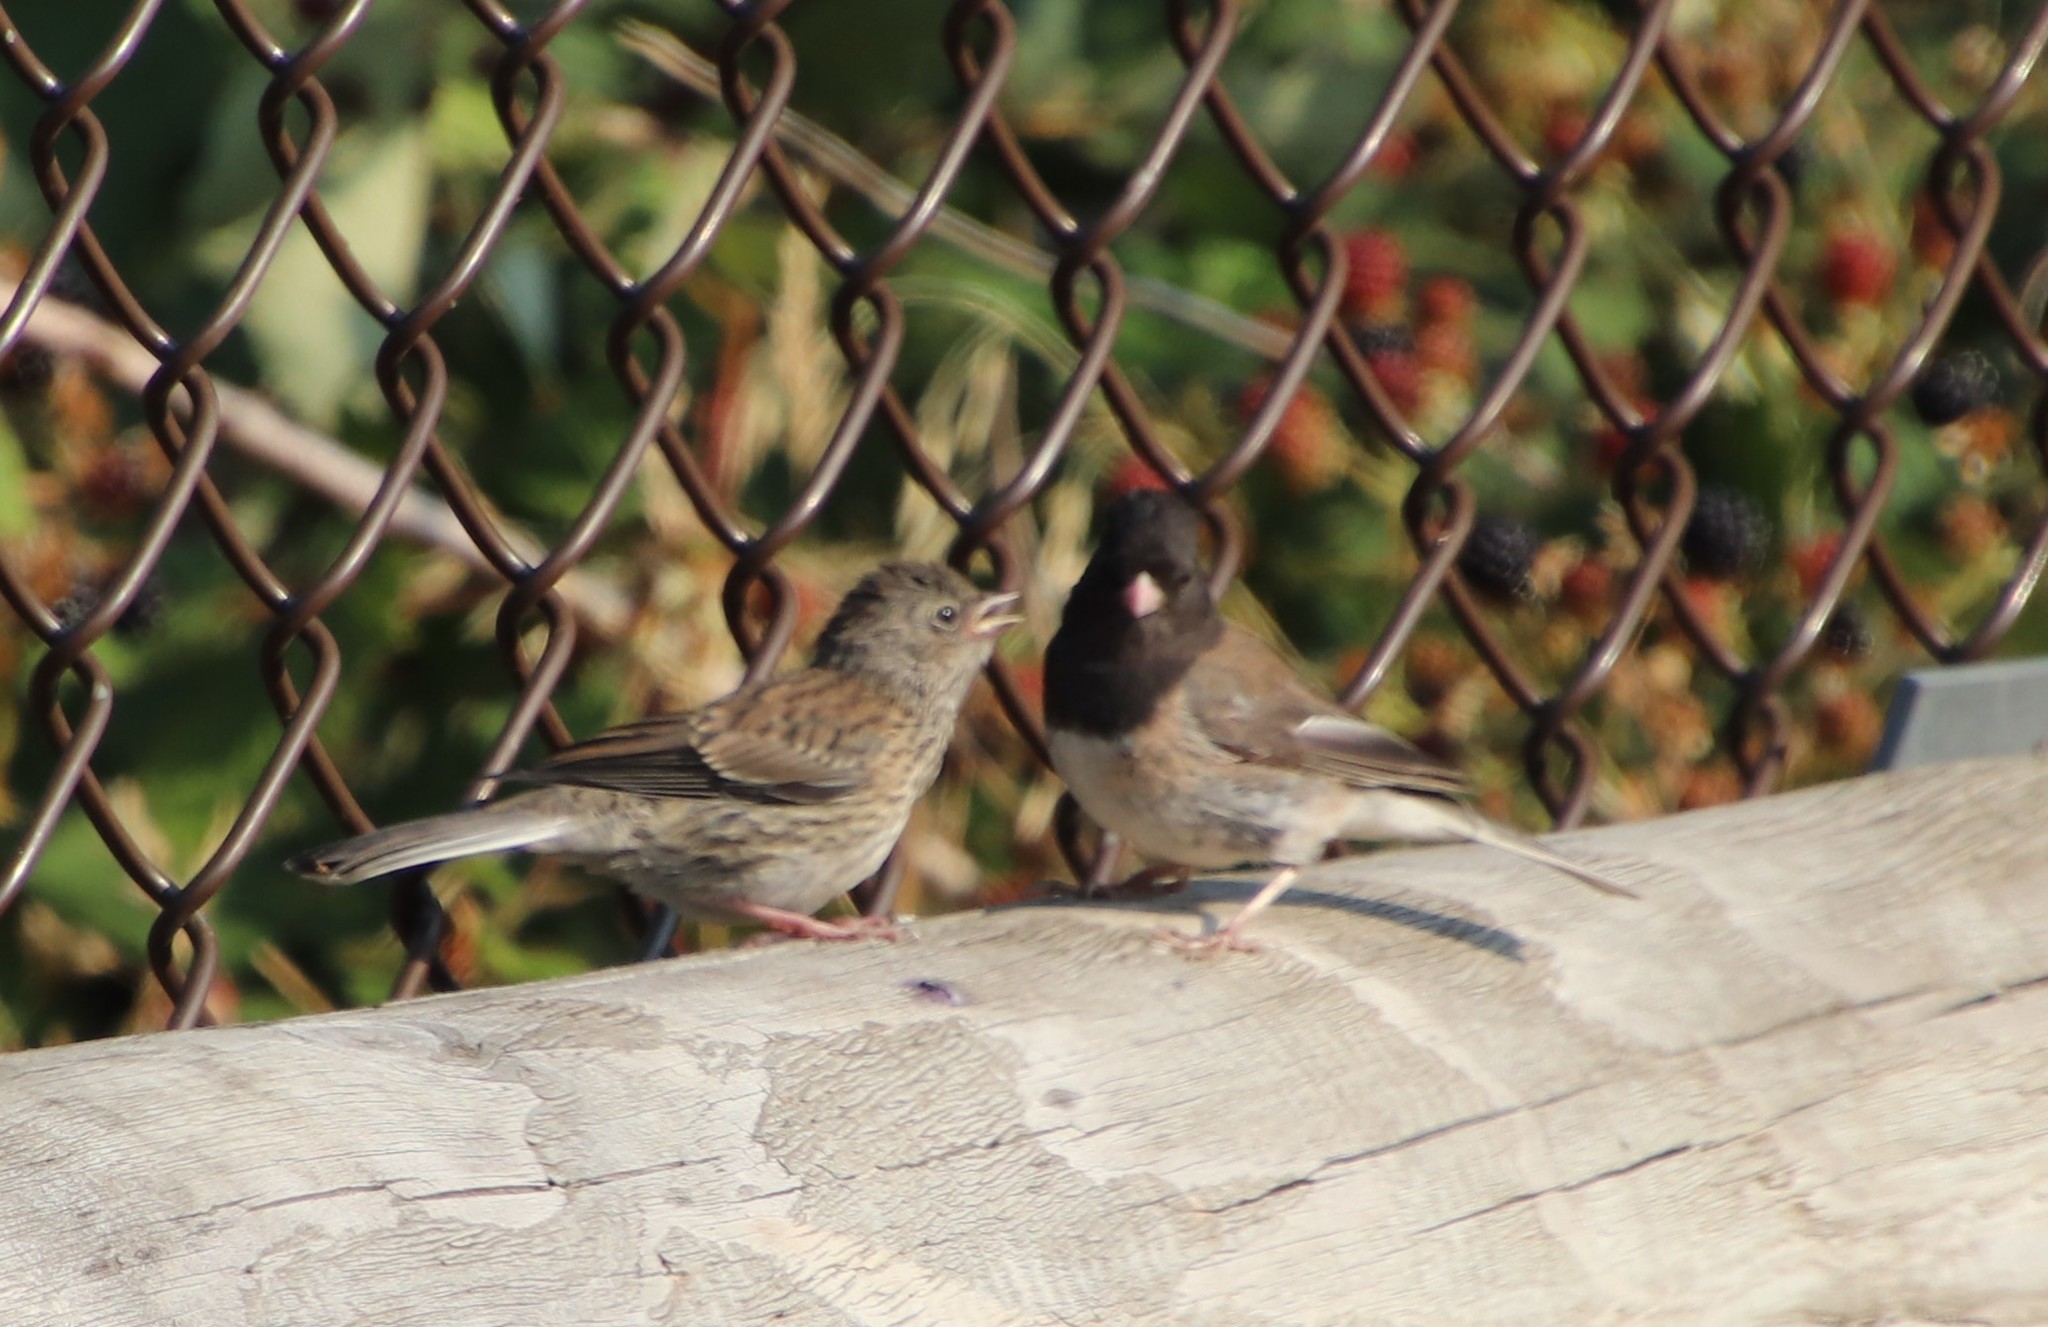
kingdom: Animalia
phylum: Chordata
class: Aves
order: Passeriformes
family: Passerellidae
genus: Junco
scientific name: Junco hyemalis
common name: Dark-eyed junco
